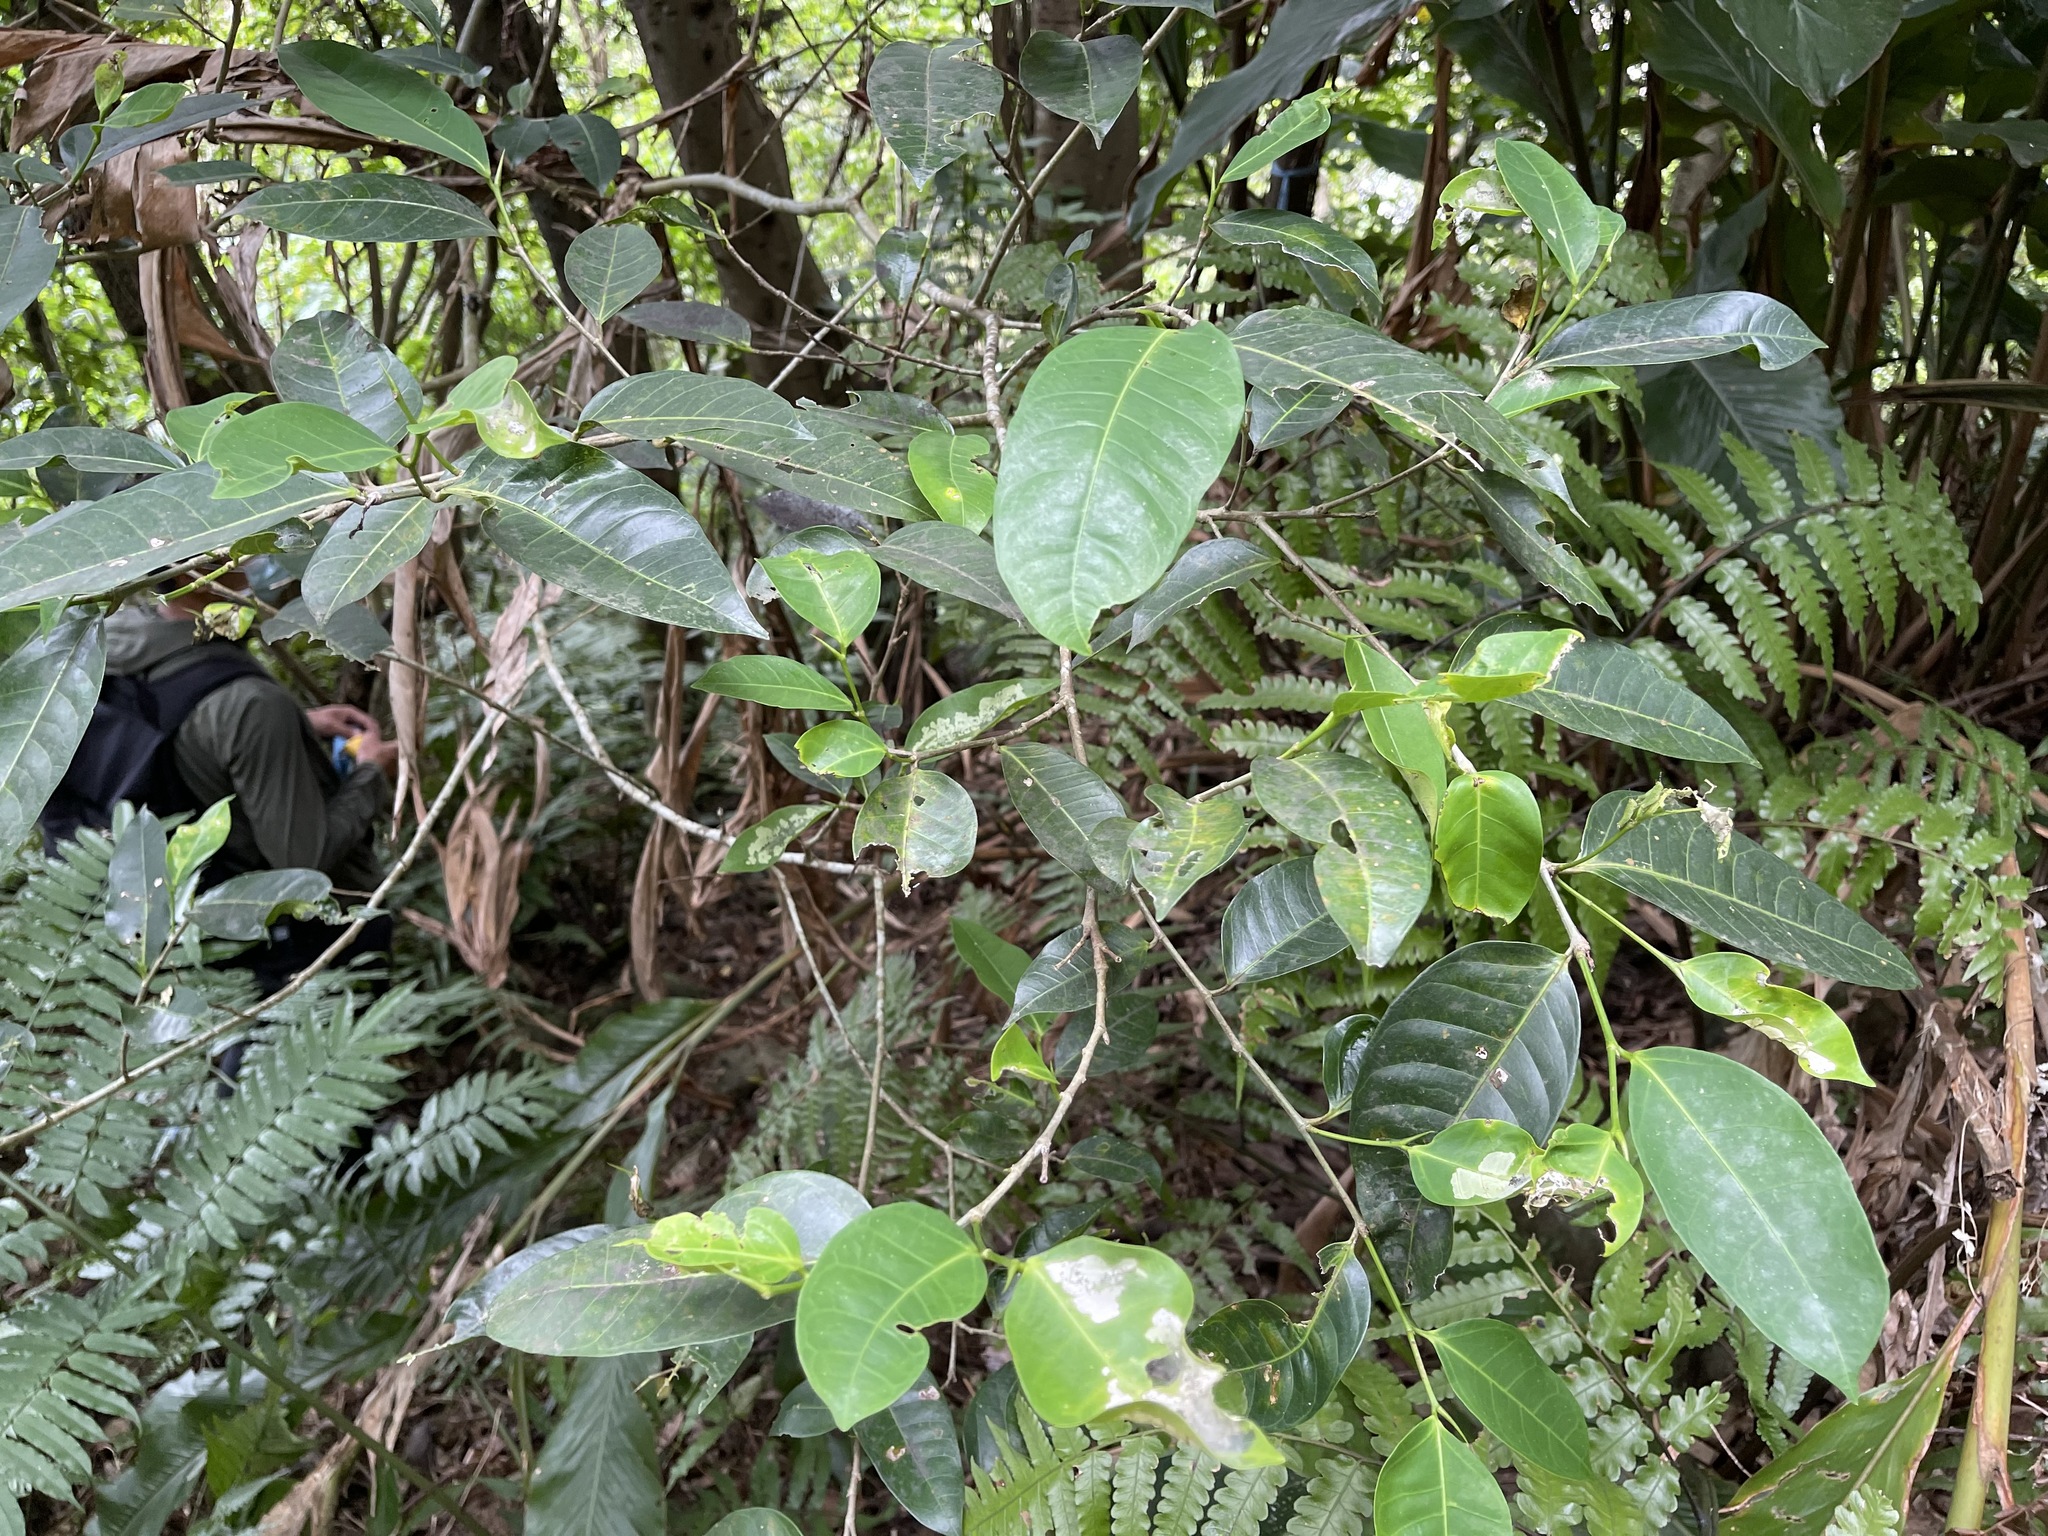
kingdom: Plantae
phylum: Tracheophyta
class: Magnoliopsida
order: Rosales
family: Moraceae
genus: Ficus
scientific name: Ficus virgata
